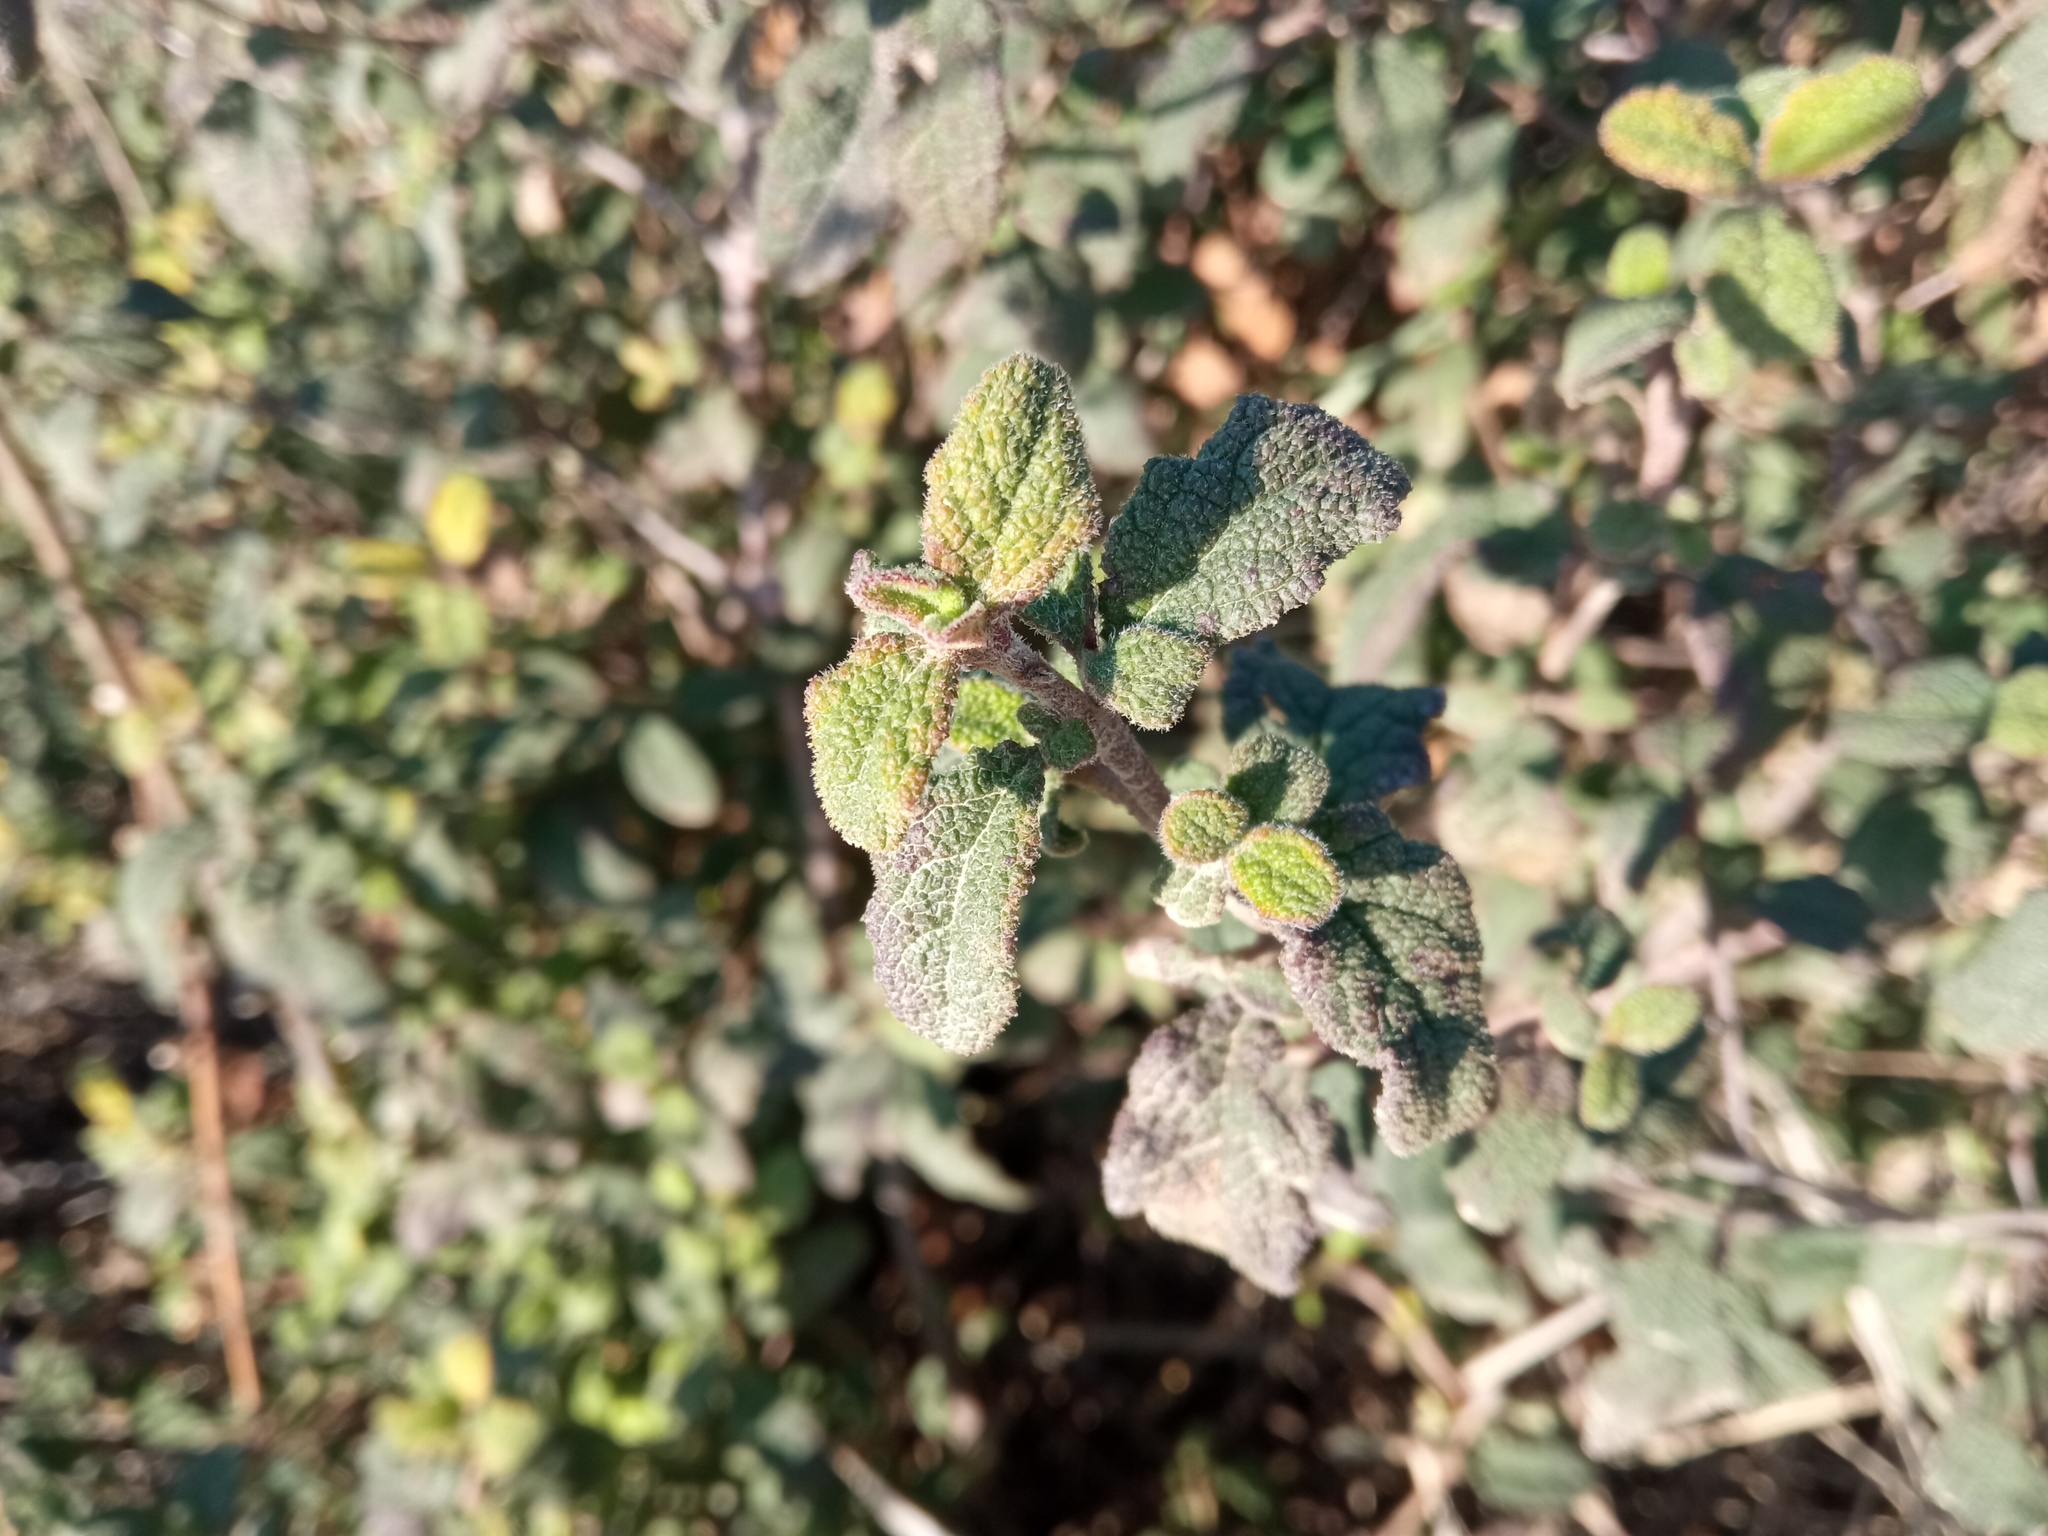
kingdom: Plantae
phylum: Tracheophyta
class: Magnoliopsida
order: Malvales
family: Cistaceae
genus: Cistus
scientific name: Cistus salviifolius
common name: Salvia cistus
